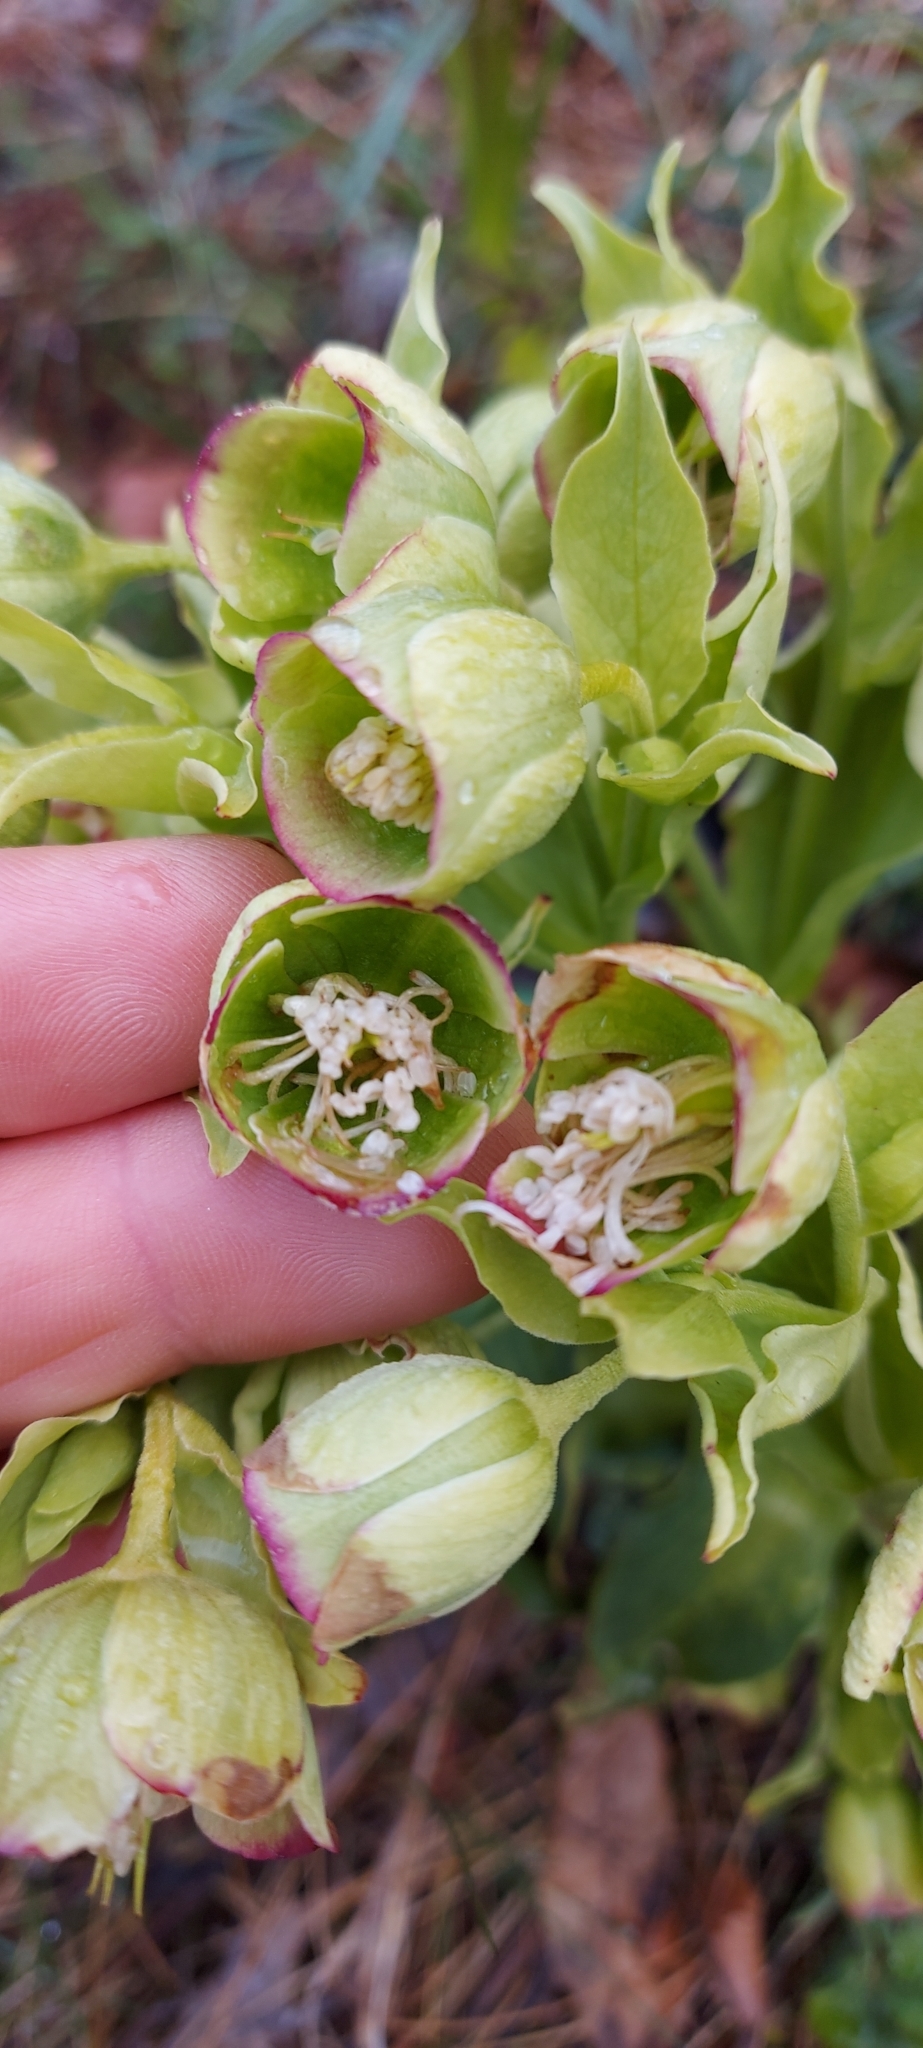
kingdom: Plantae
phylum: Tracheophyta
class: Magnoliopsida
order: Ranunculales
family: Ranunculaceae
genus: Helleborus
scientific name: Helleborus foetidus
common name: Stinking hellebore
